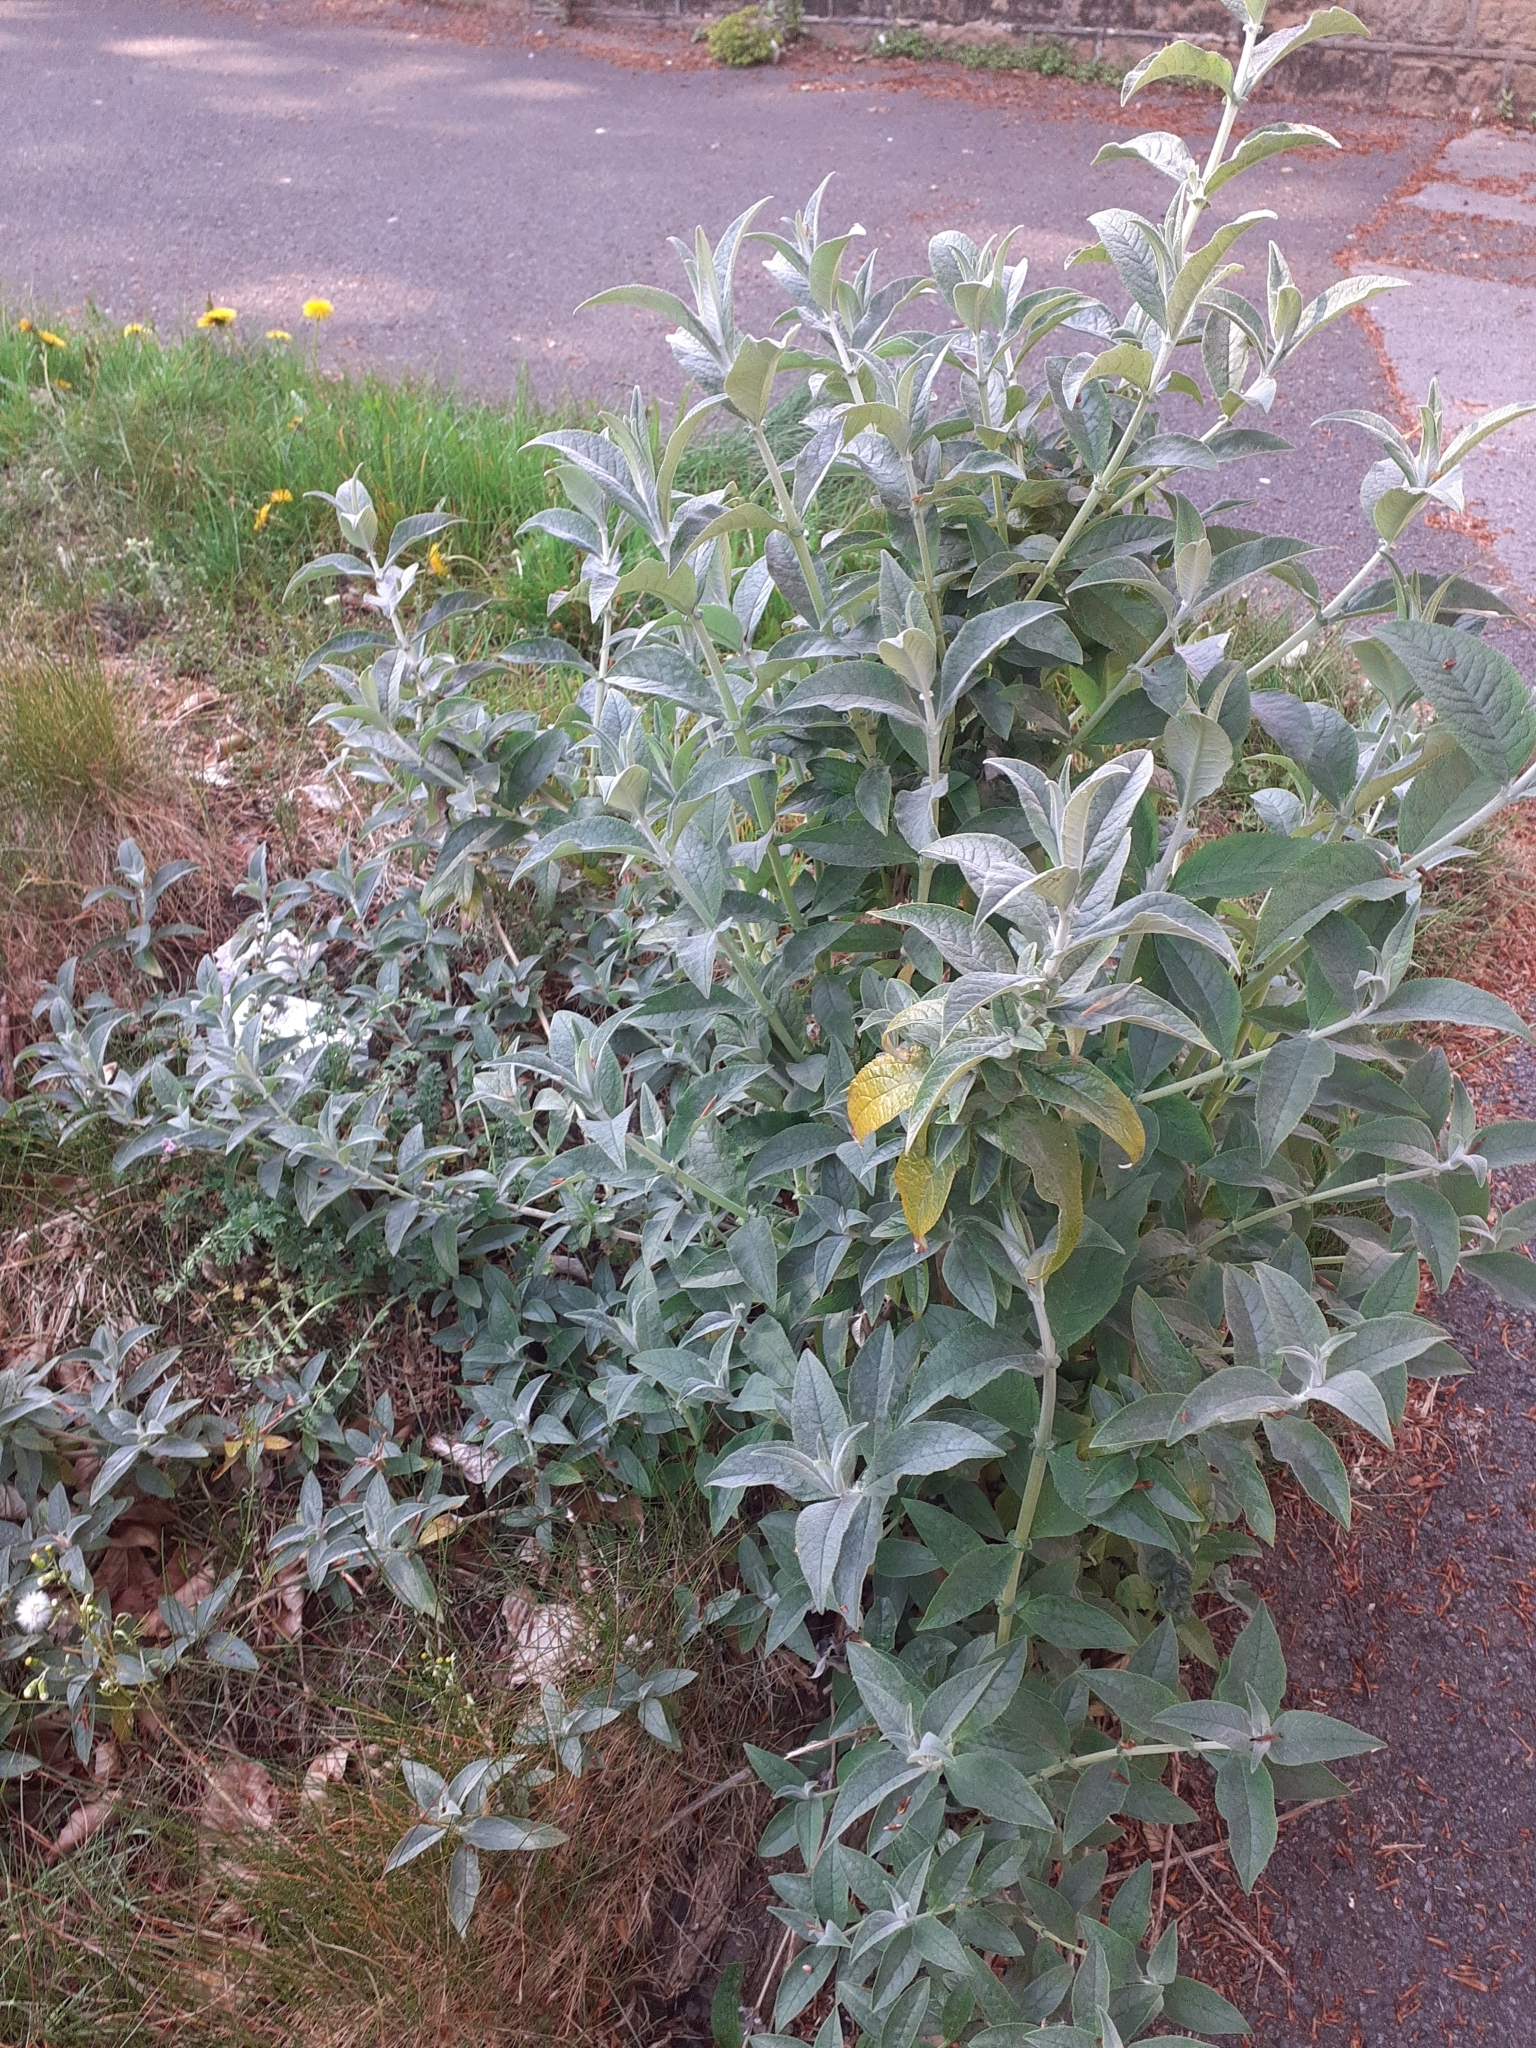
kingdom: Plantae
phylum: Tracheophyta
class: Magnoliopsida
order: Lamiales
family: Scrophulariaceae
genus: Buddleja
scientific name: Buddleja davidii
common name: Butterfly-bush
